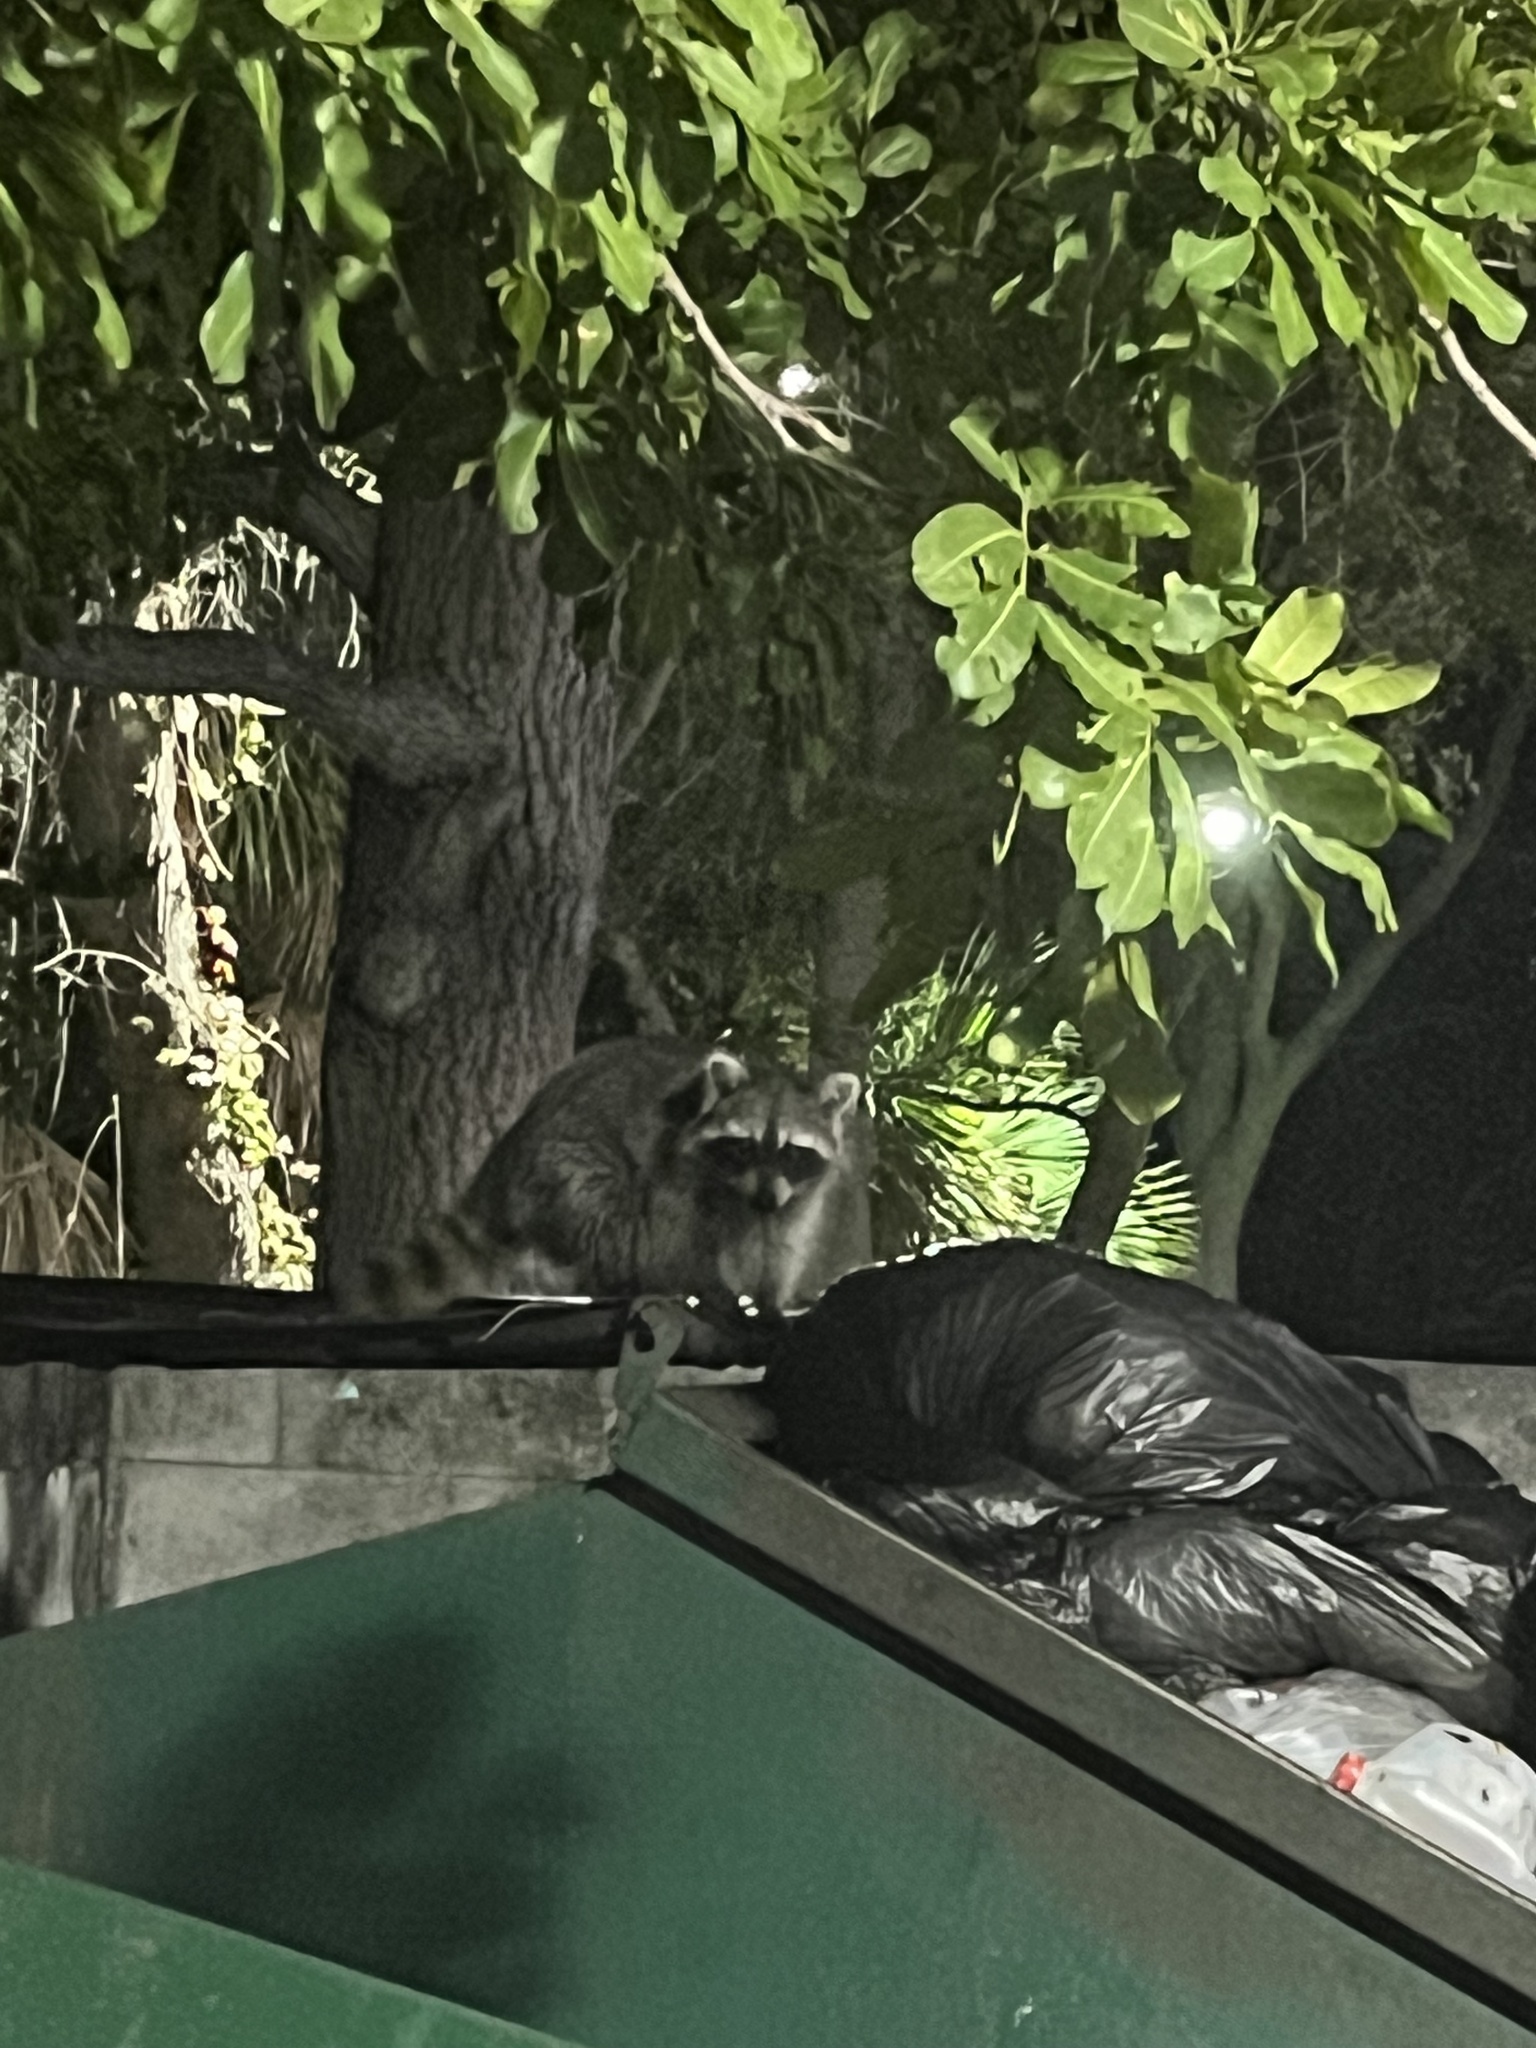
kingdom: Animalia
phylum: Chordata
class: Mammalia
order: Carnivora
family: Procyonidae
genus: Procyon
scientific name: Procyon lotor
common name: Raccoon
